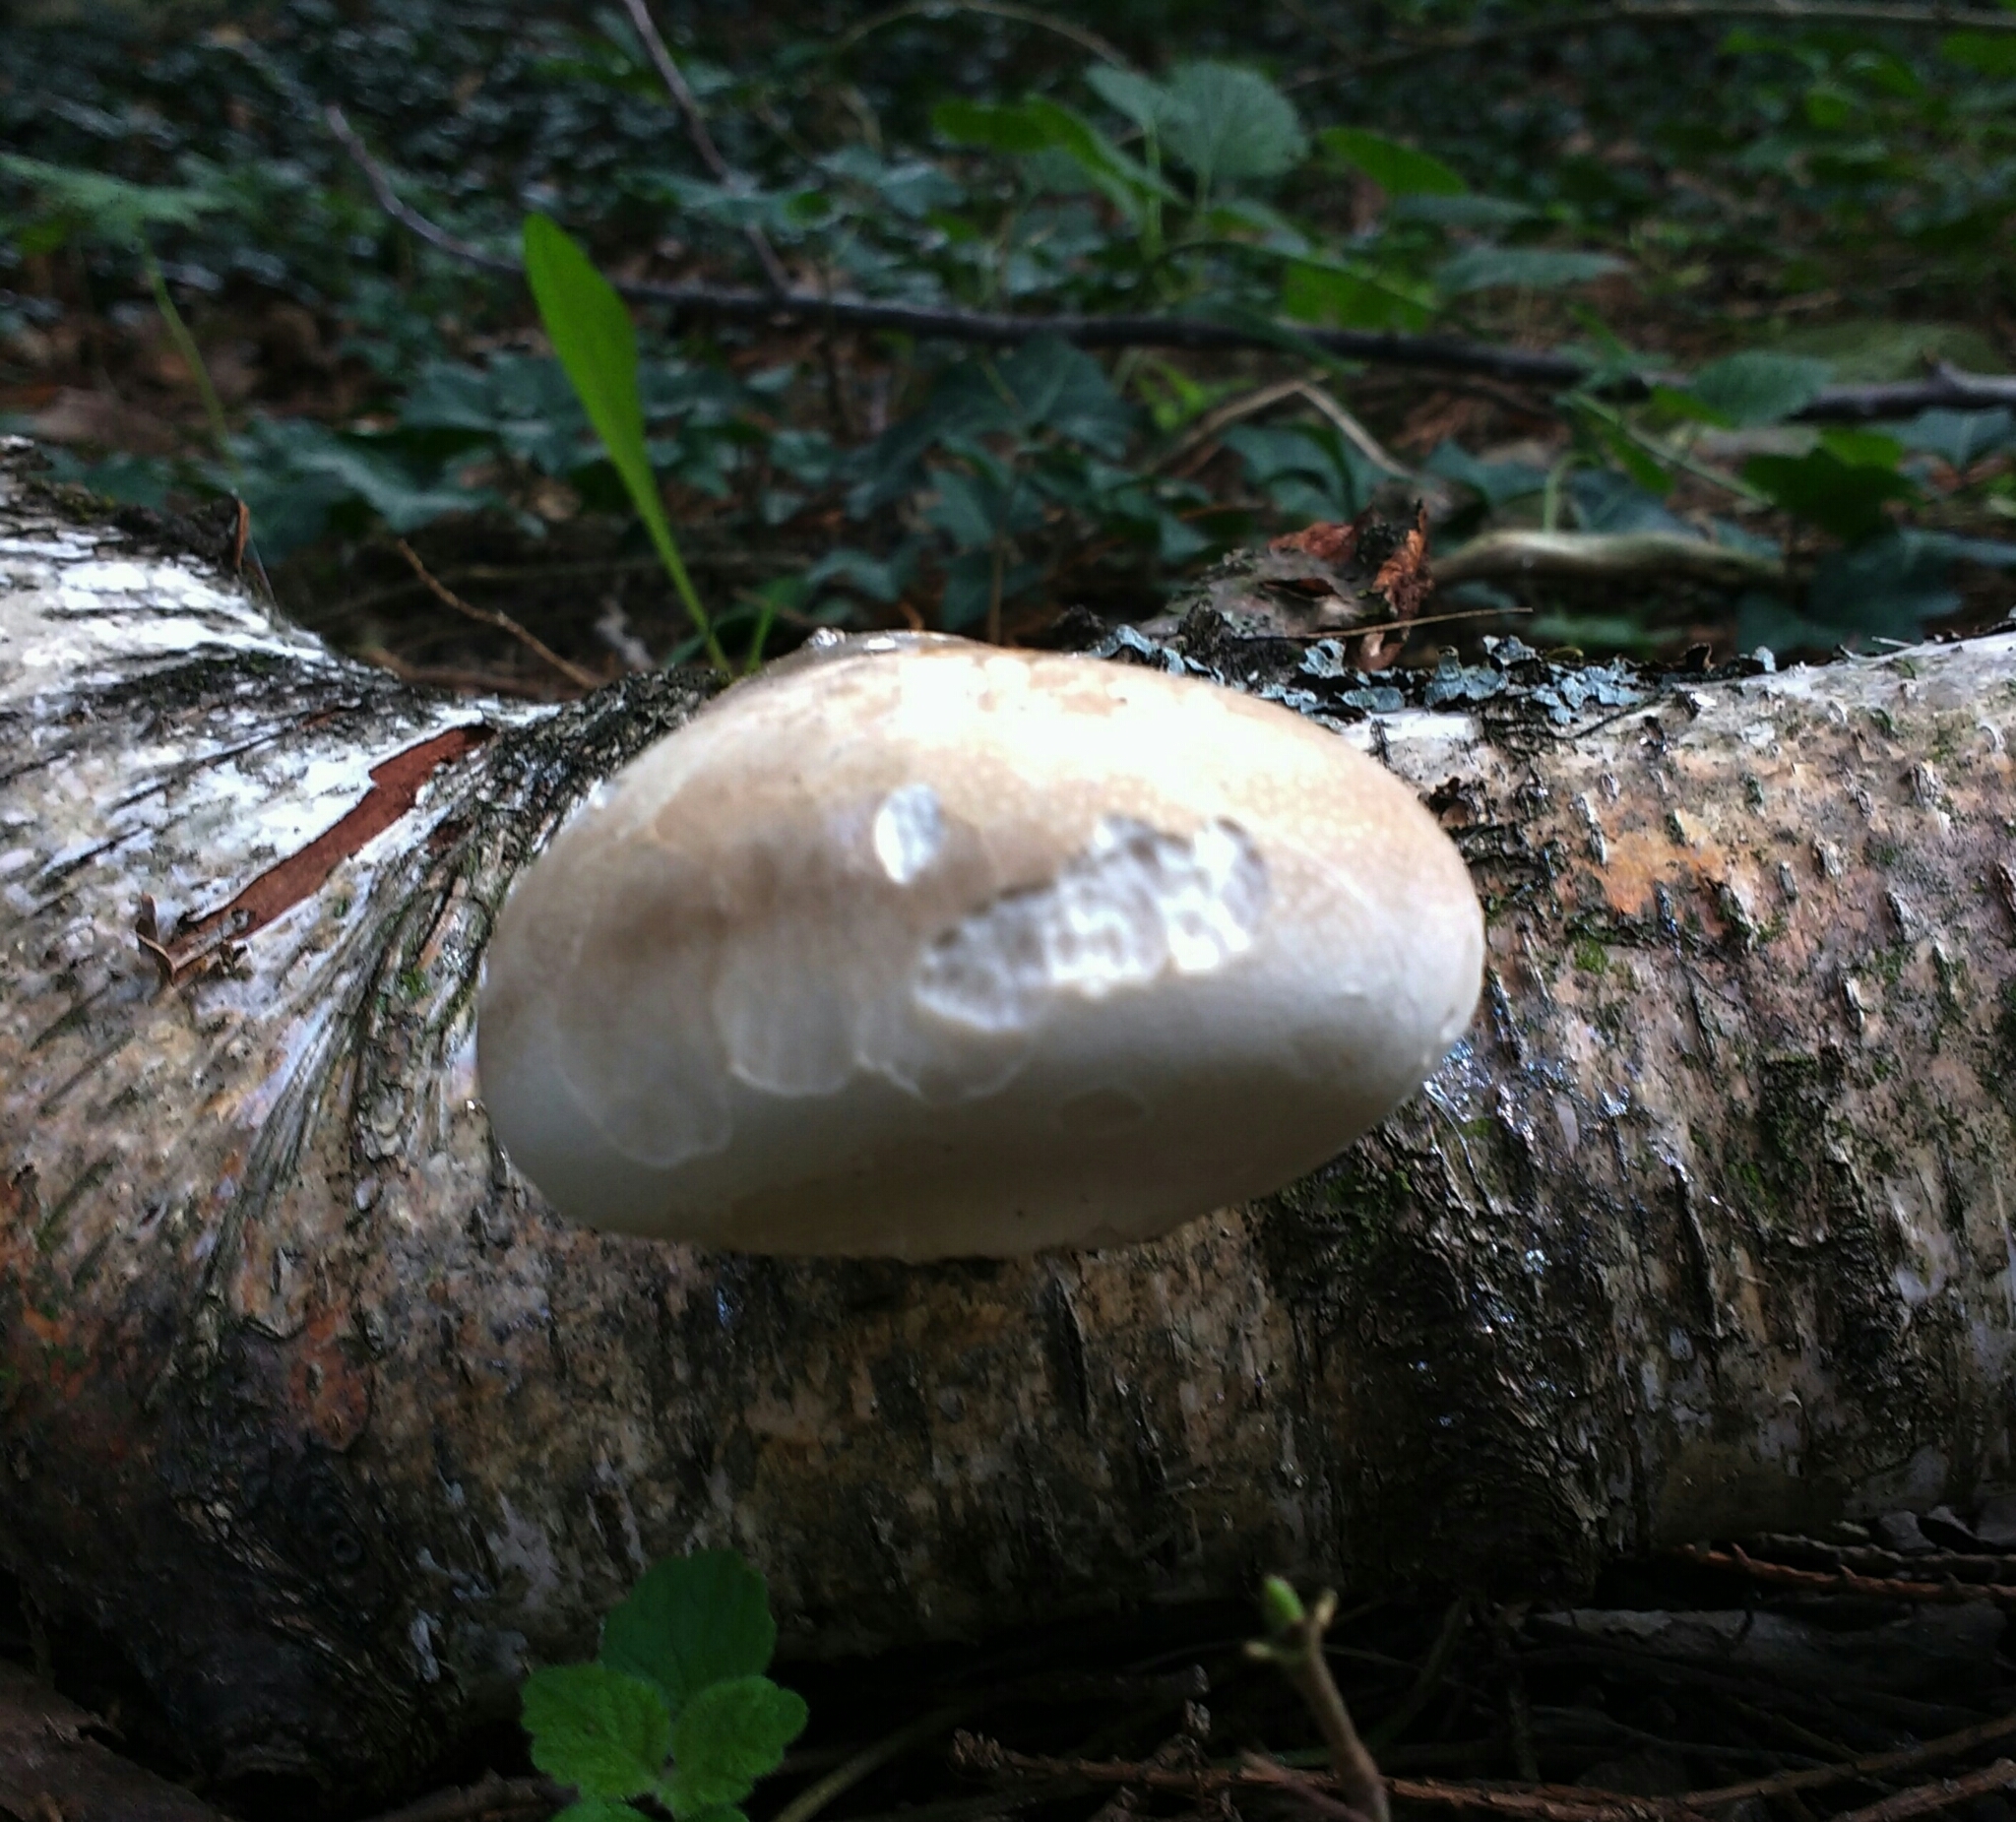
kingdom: Fungi
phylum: Basidiomycota
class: Agaricomycetes
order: Polyporales
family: Fomitopsidaceae
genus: Fomitopsis
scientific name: Fomitopsis betulina
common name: Birch polypore
